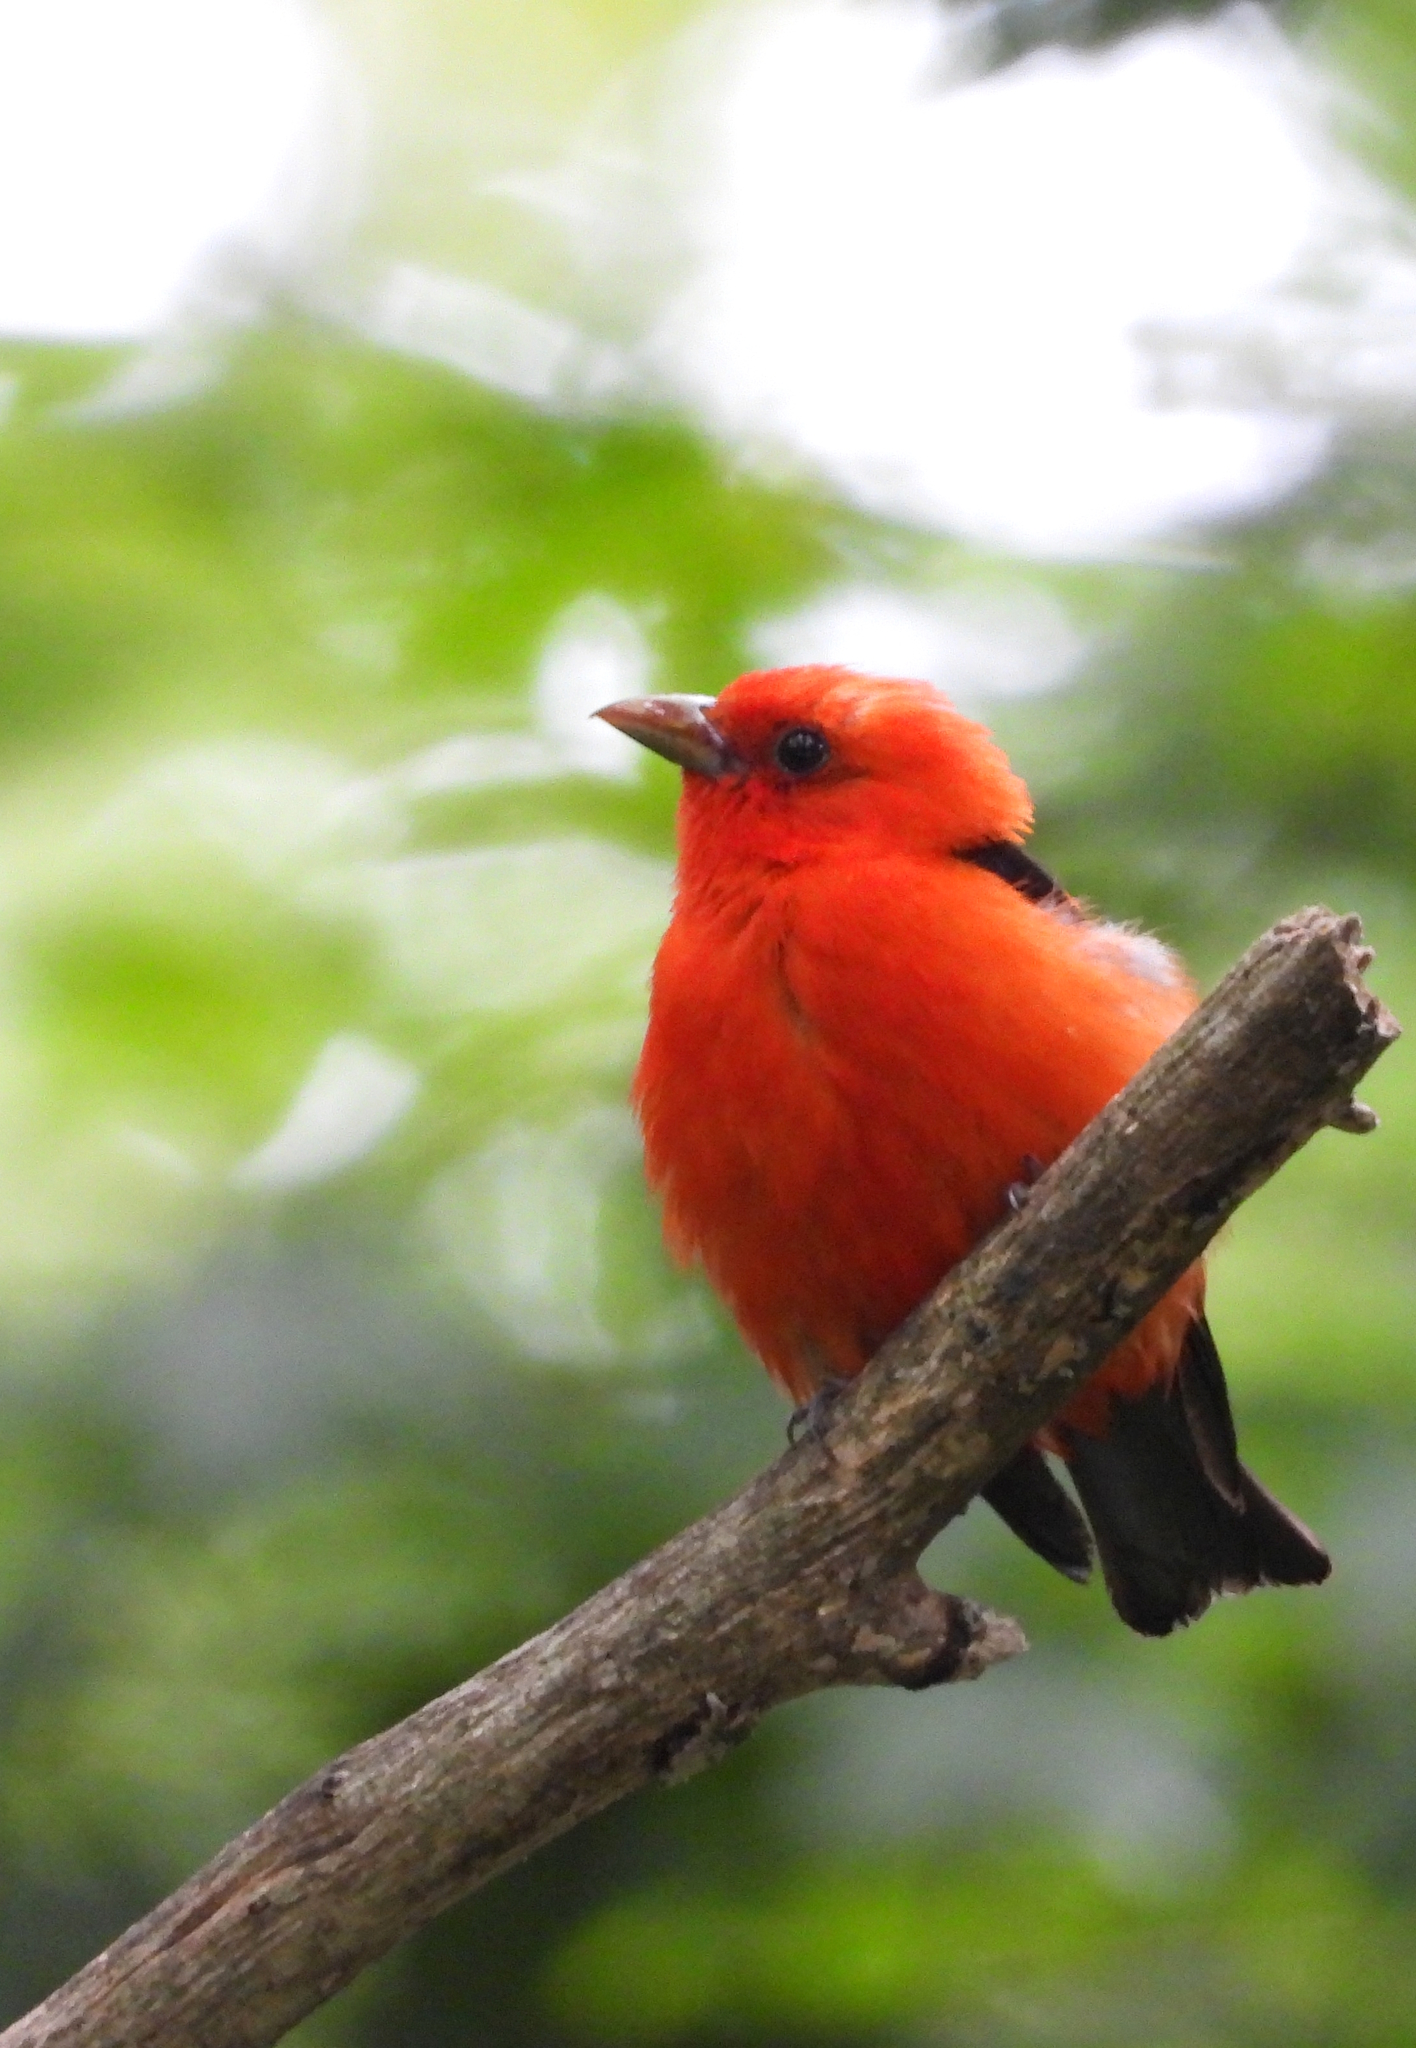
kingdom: Animalia
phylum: Chordata
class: Aves
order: Passeriformes
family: Cardinalidae
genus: Piranga
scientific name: Piranga olivacea
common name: Scarlet tanager
